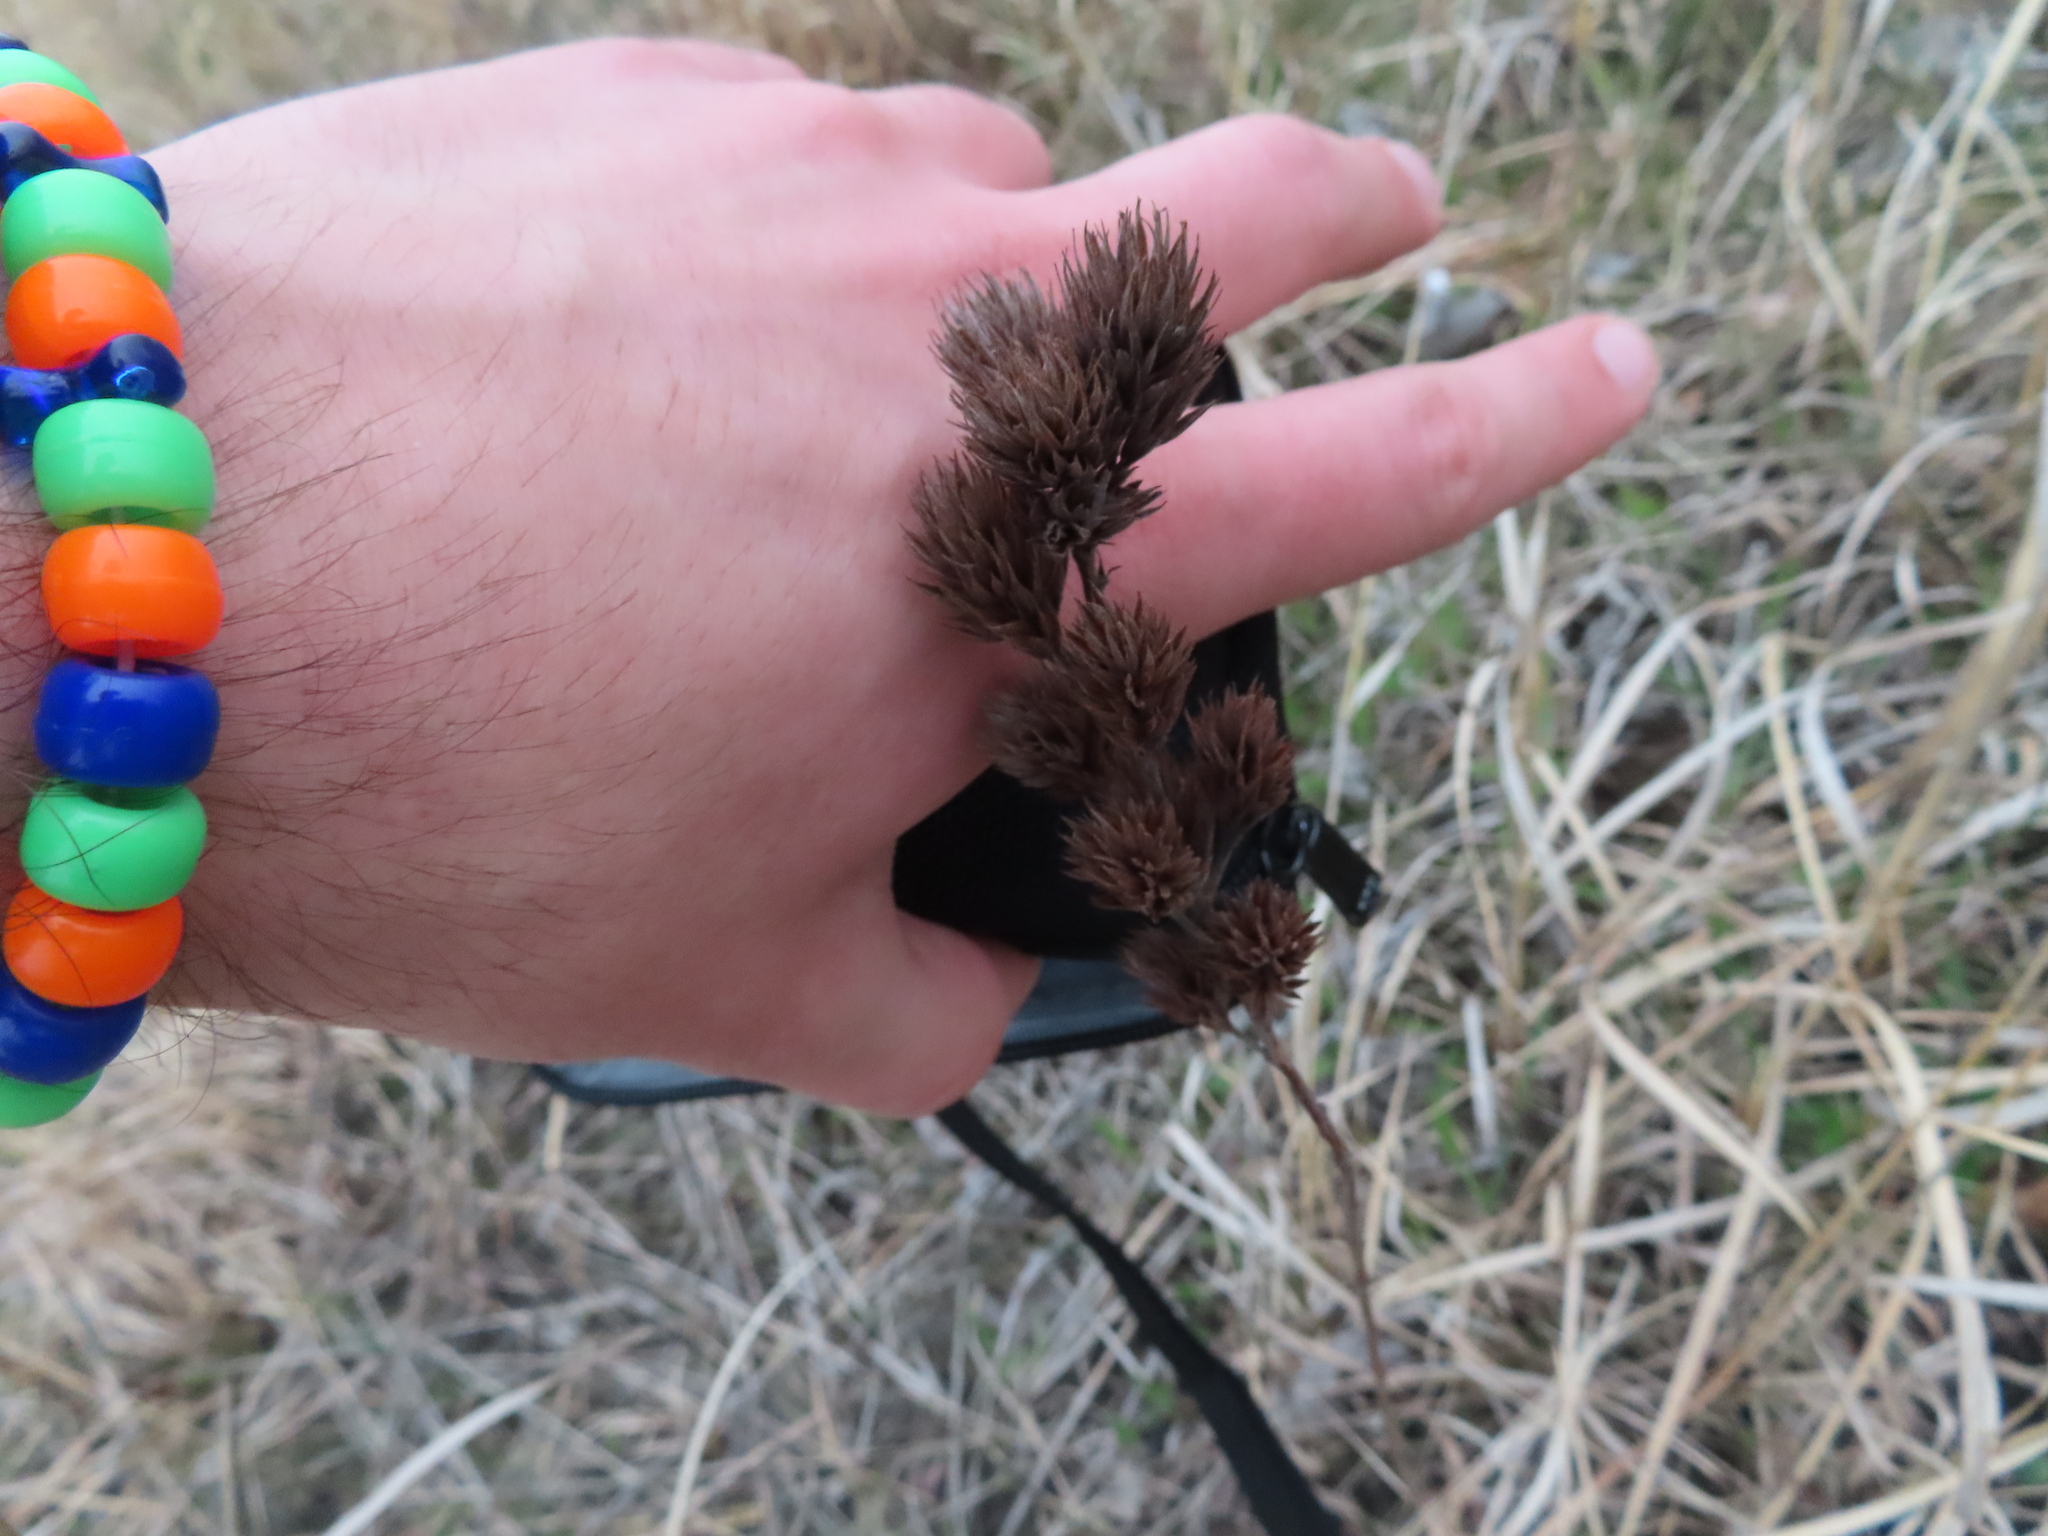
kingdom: Plantae
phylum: Tracheophyta
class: Magnoliopsida
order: Fabales
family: Fabaceae
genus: Lespedeza
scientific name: Lespedeza capitata
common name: Dusty clover
